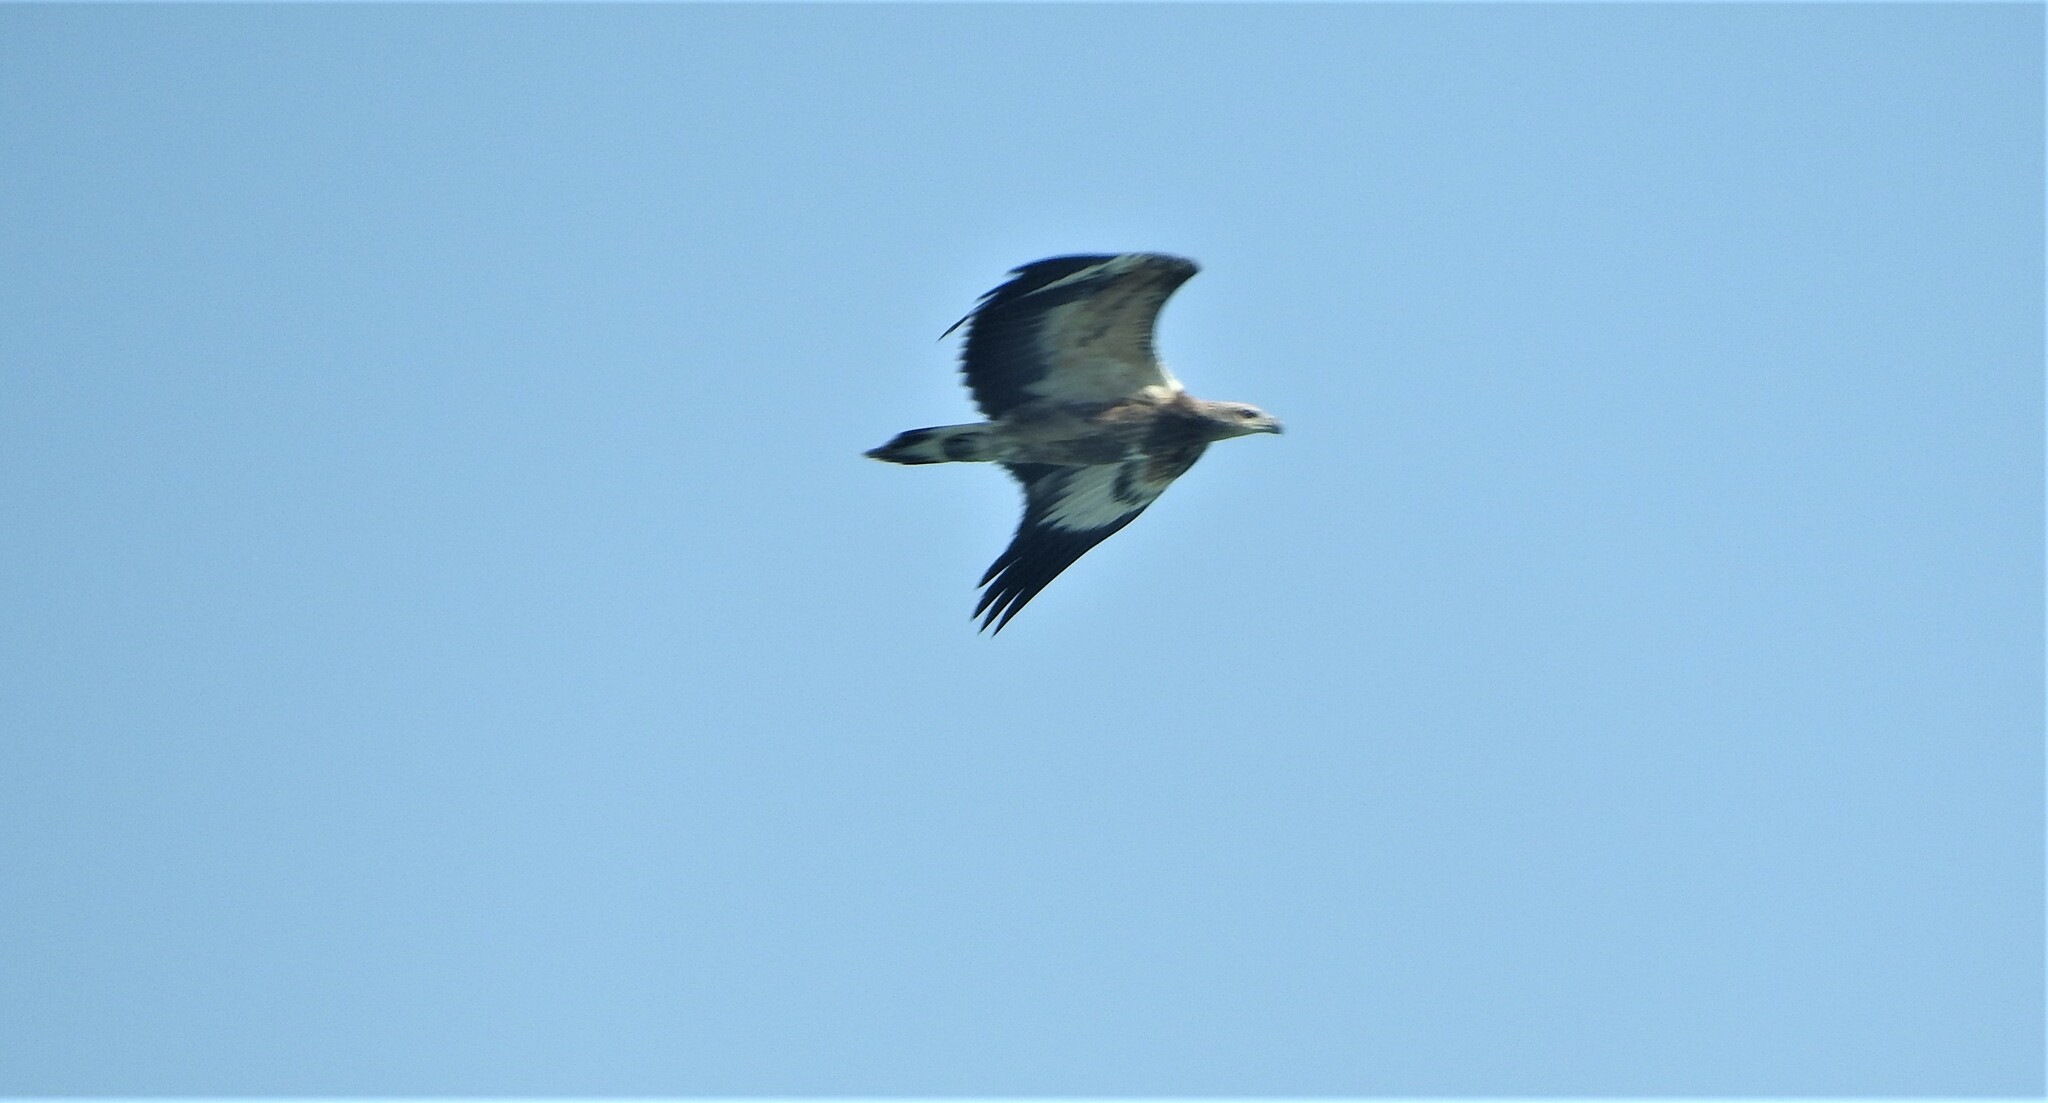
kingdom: Animalia
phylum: Chordata
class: Aves
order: Accipitriformes
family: Accipitridae
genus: Haliaeetus
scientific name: Haliaeetus leucogaster
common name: White-bellied sea eagle
